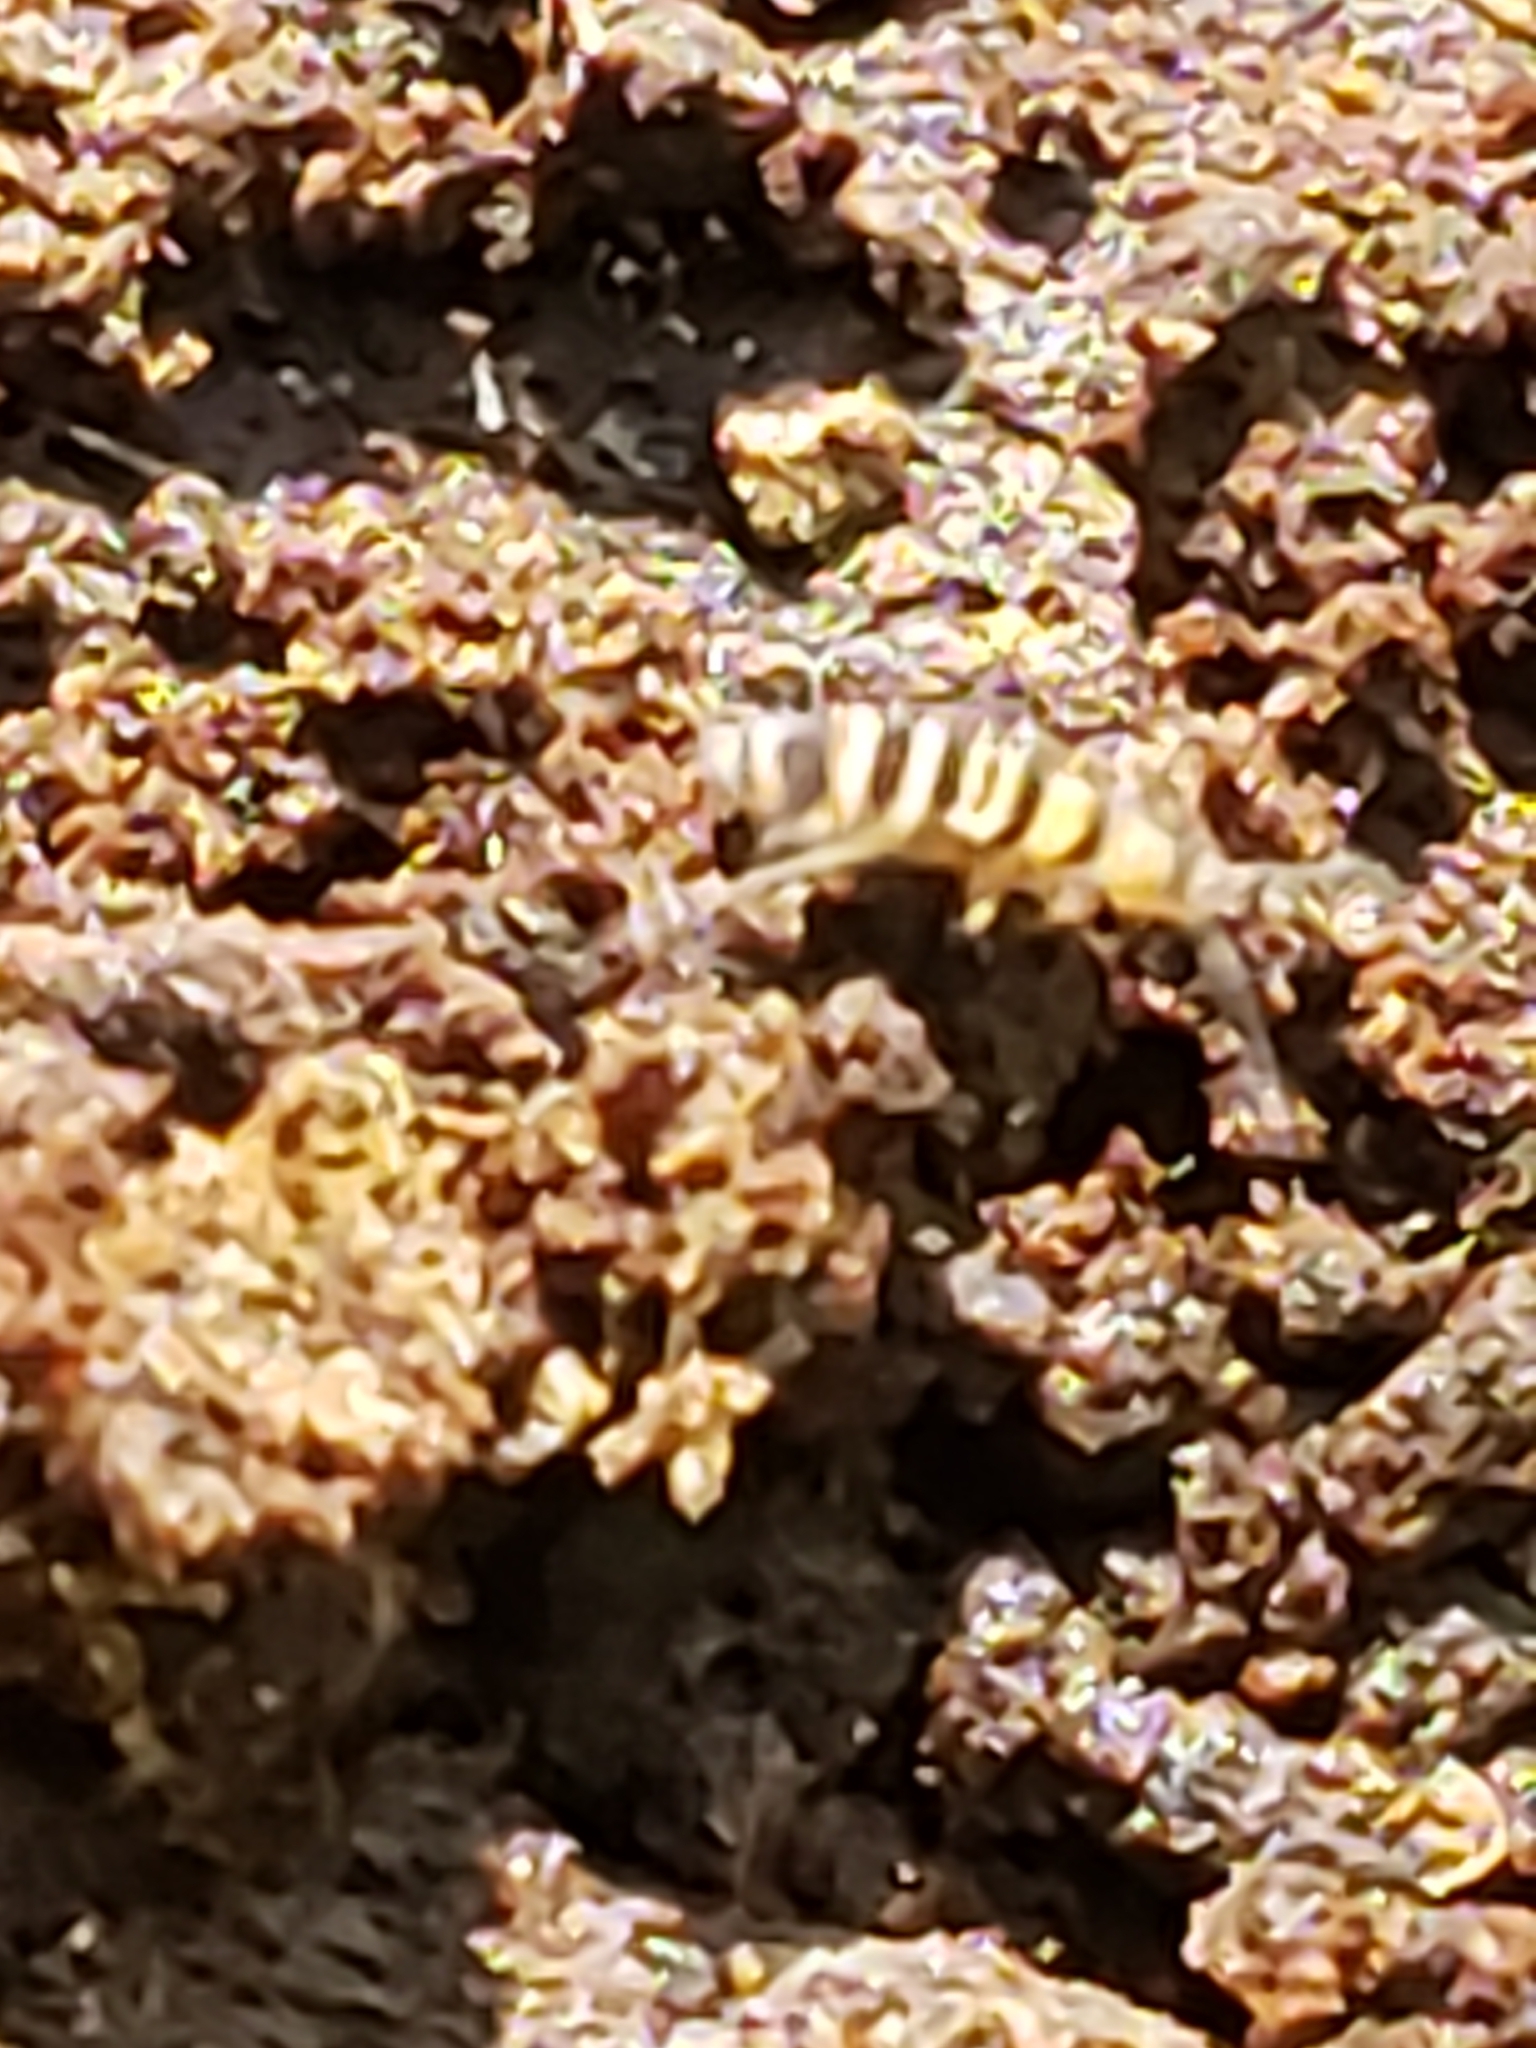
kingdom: Animalia
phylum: Arthropoda
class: Collembola
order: Entomobryomorpha
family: Orchesellidae
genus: Orchesella
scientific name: Orchesella hexfasciata
